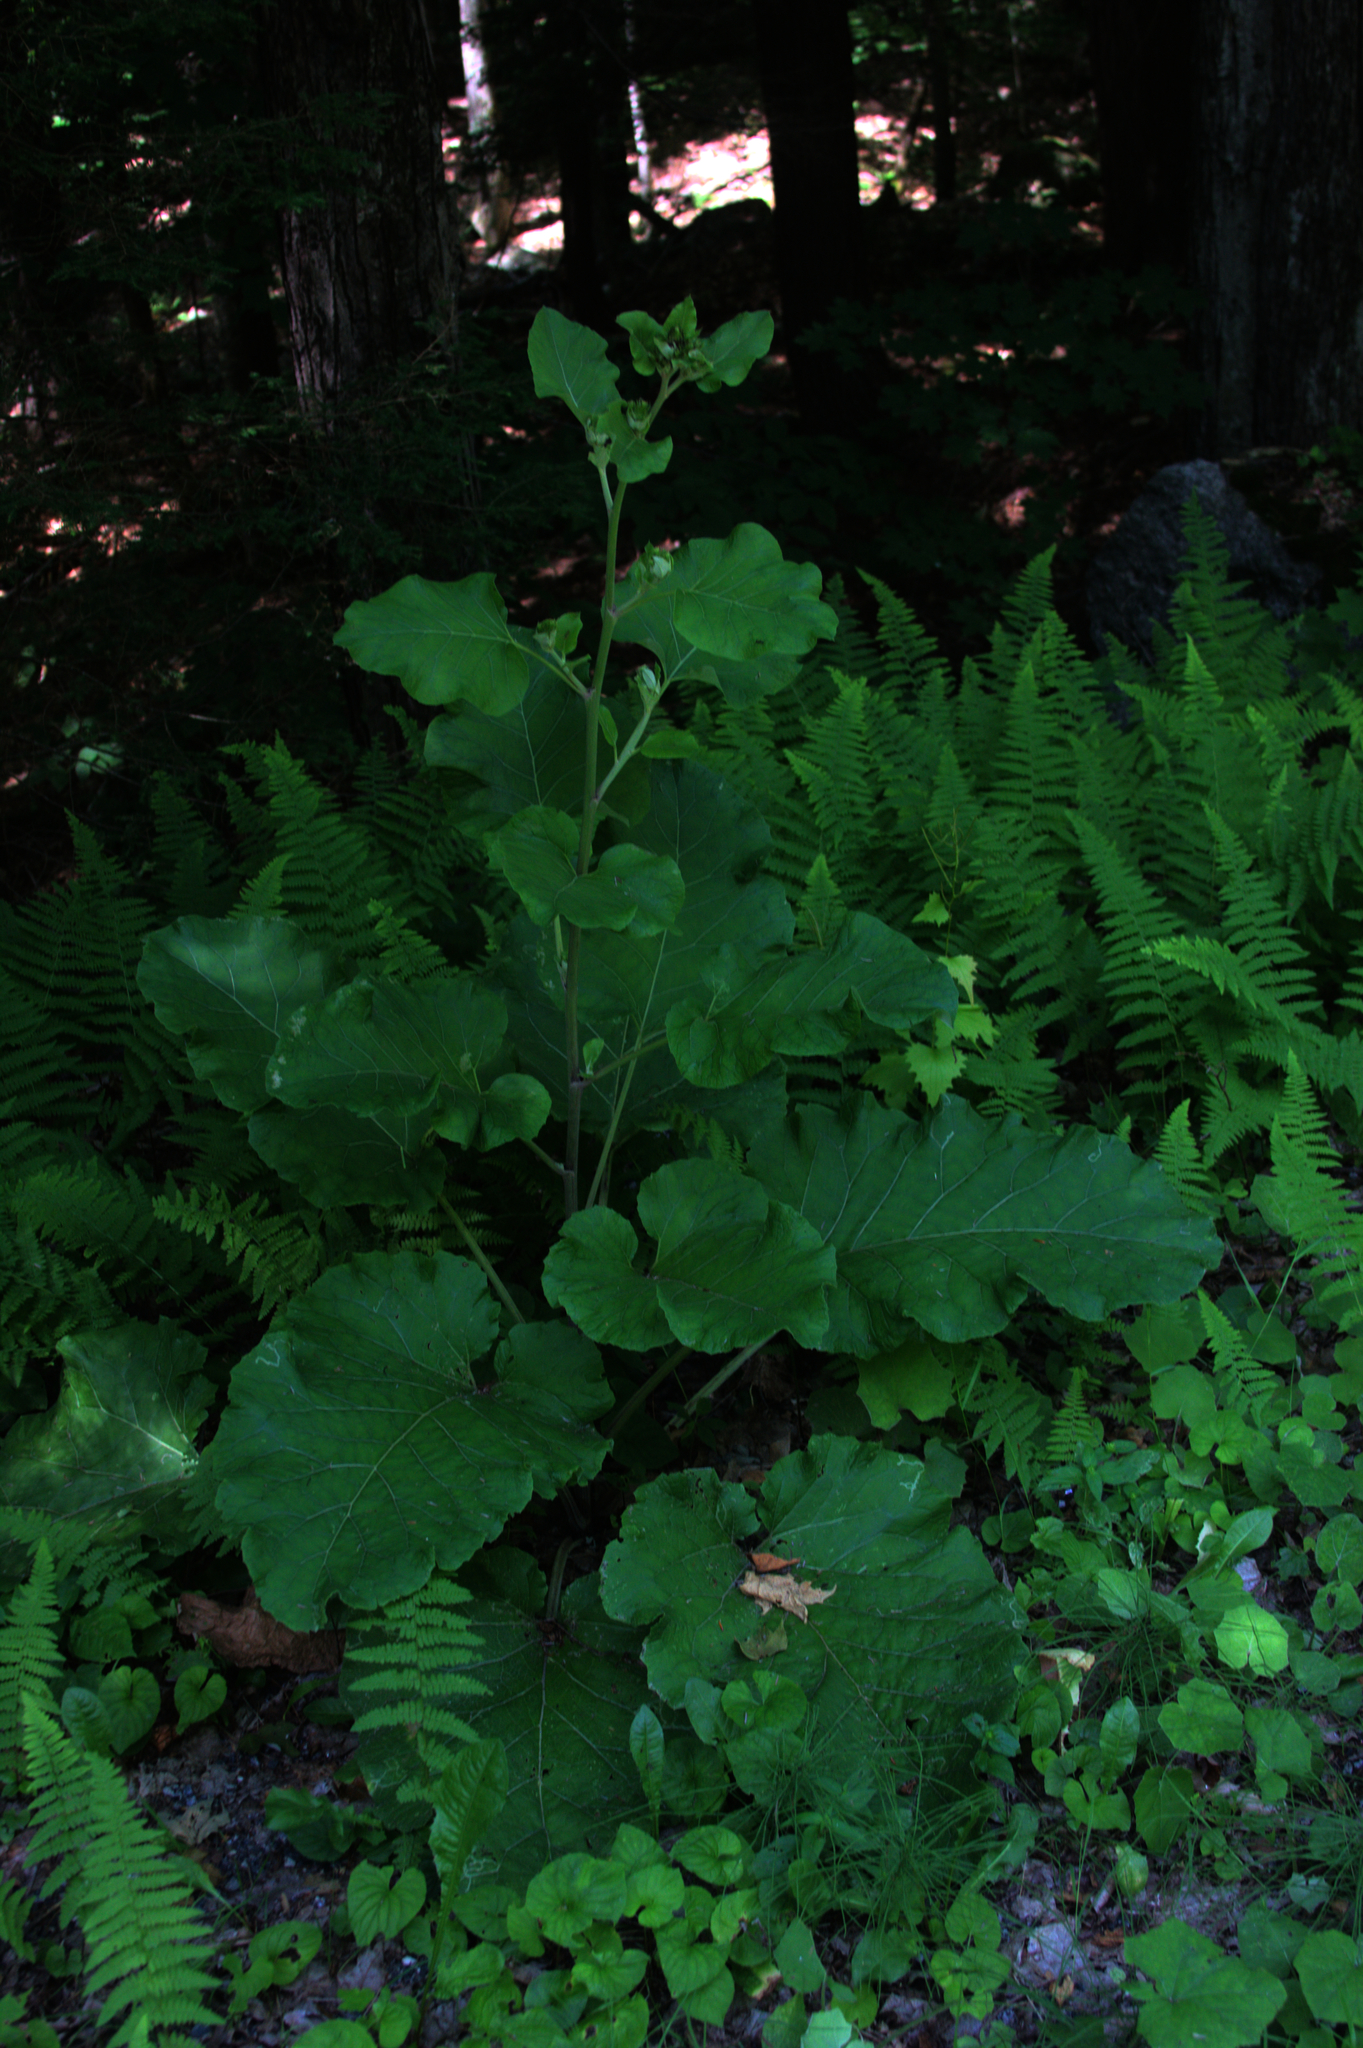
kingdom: Plantae
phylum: Tracheophyta
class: Magnoliopsida
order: Asterales
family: Asteraceae
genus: Arctium
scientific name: Arctium
